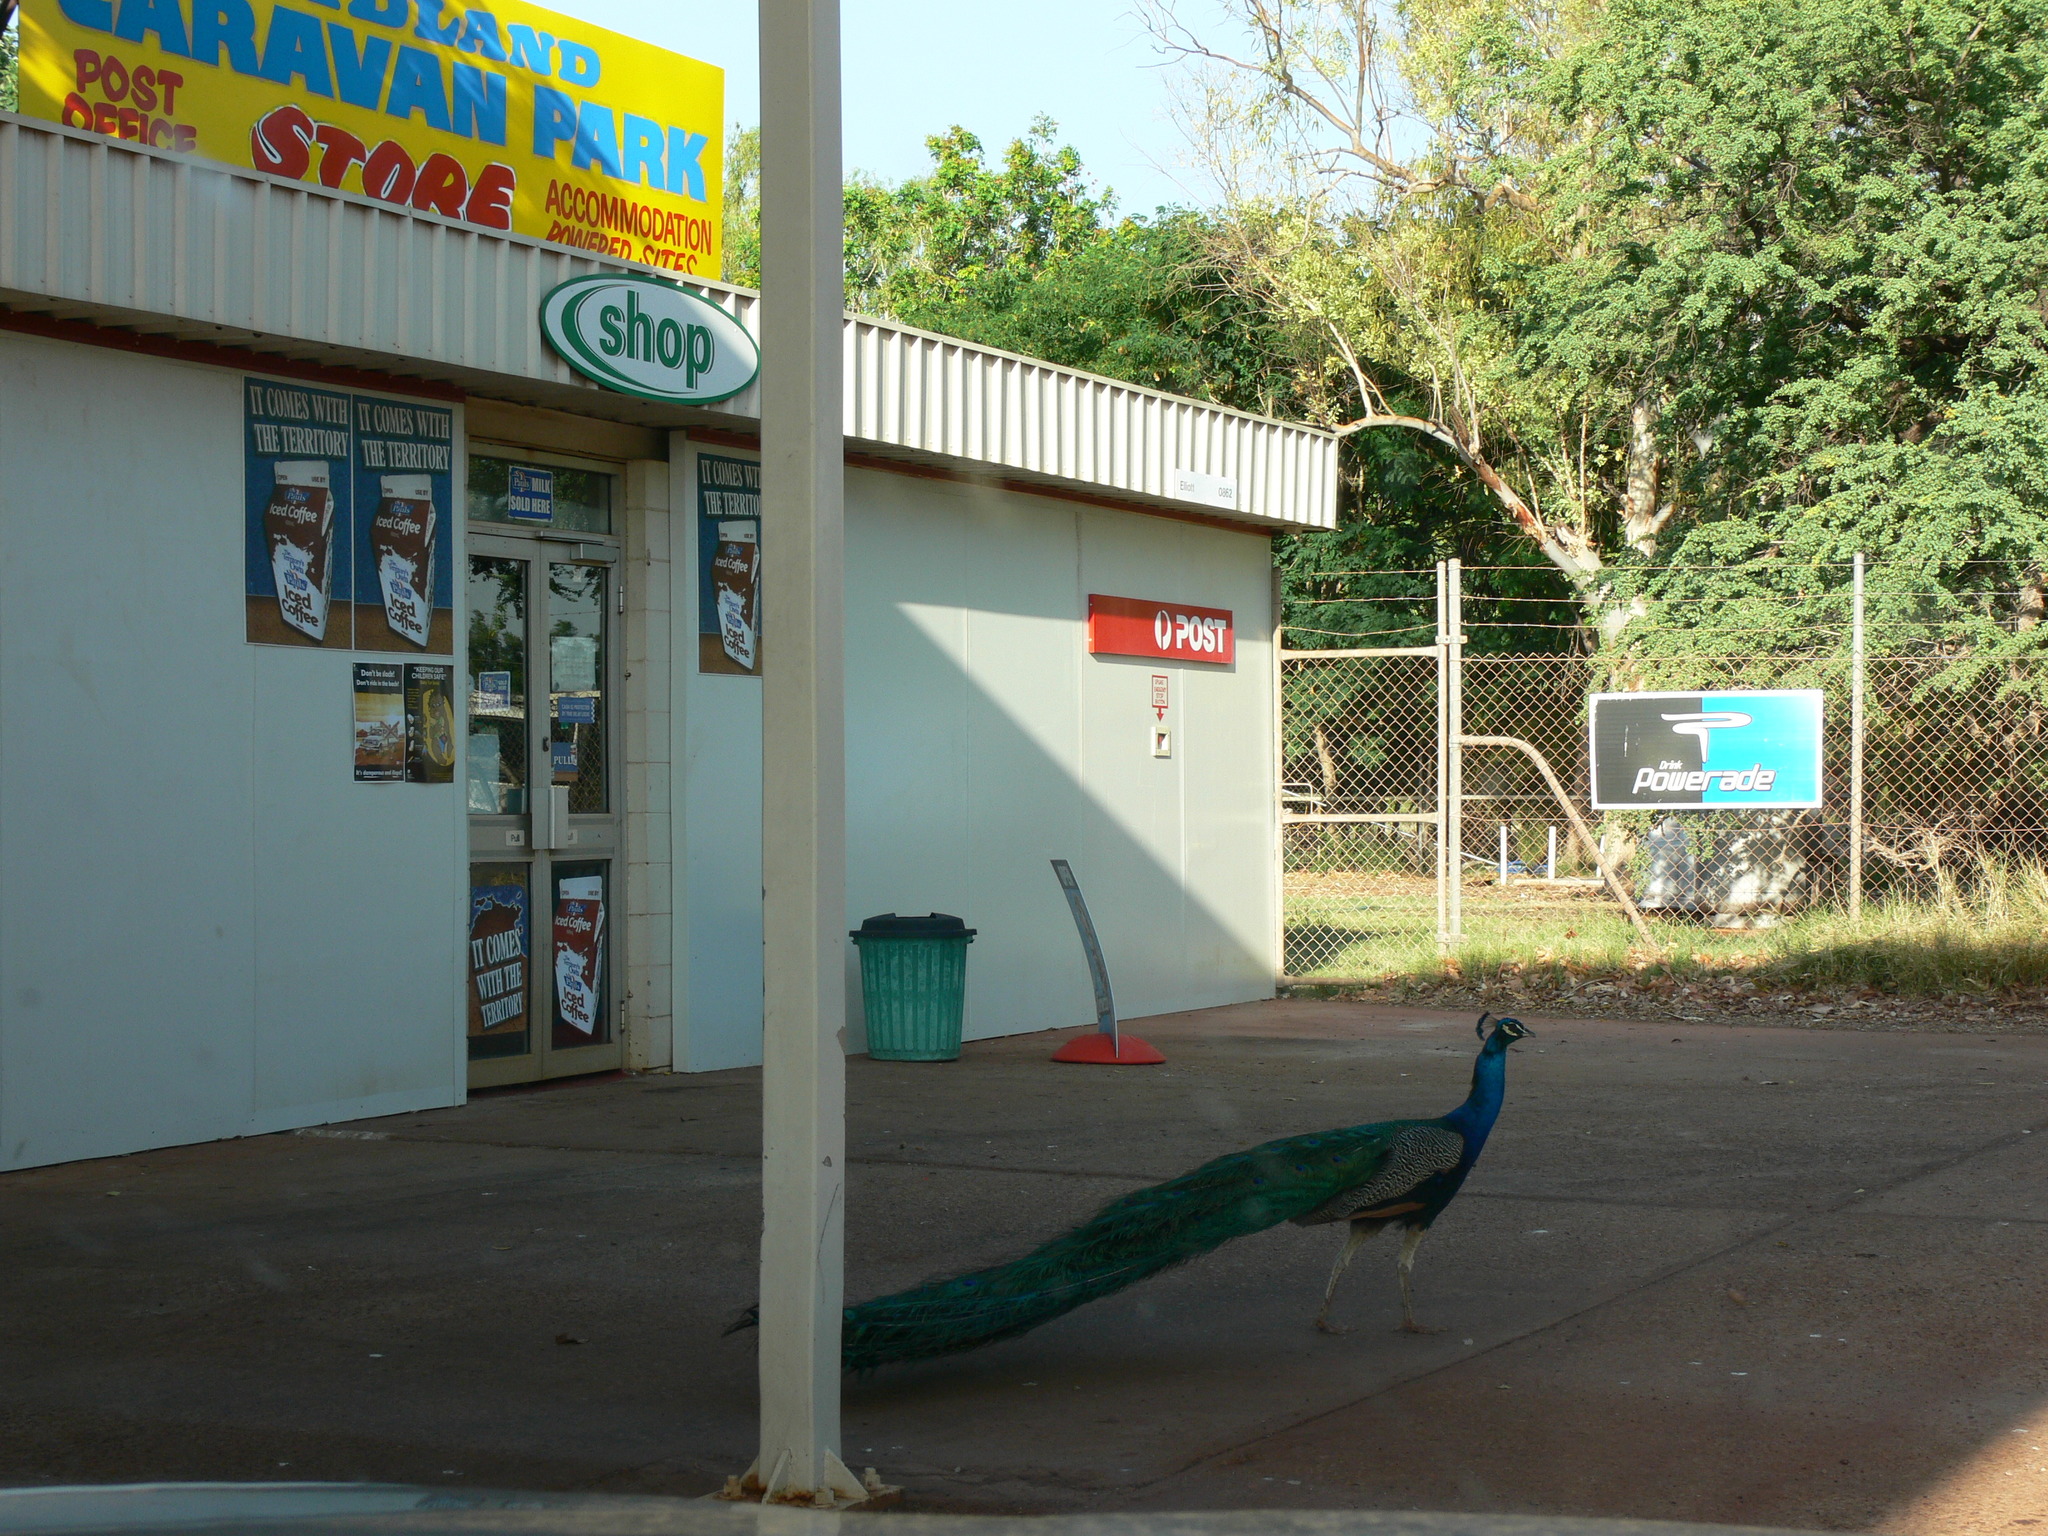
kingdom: Animalia
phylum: Chordata
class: Aves
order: Galliformes
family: Phasianidae
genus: Pavo
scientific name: Pavo cristatus
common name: Indian peafowl
